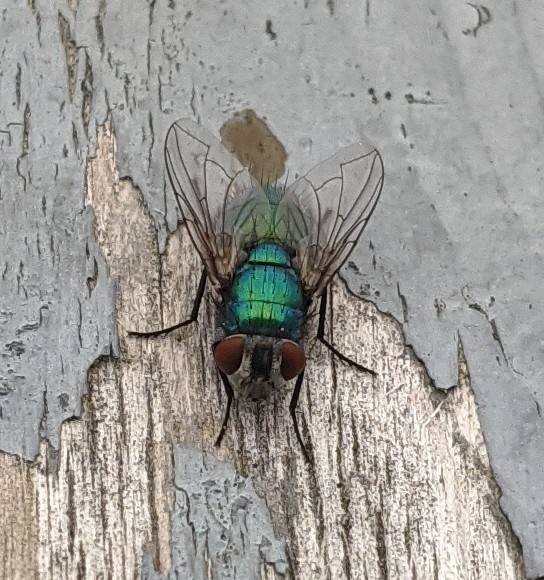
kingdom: Animalia
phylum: Arthropoda
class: Insecta
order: Diptera
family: Calliphoridae
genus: Lucilia
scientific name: Lucilia sericata
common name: Blow fly
